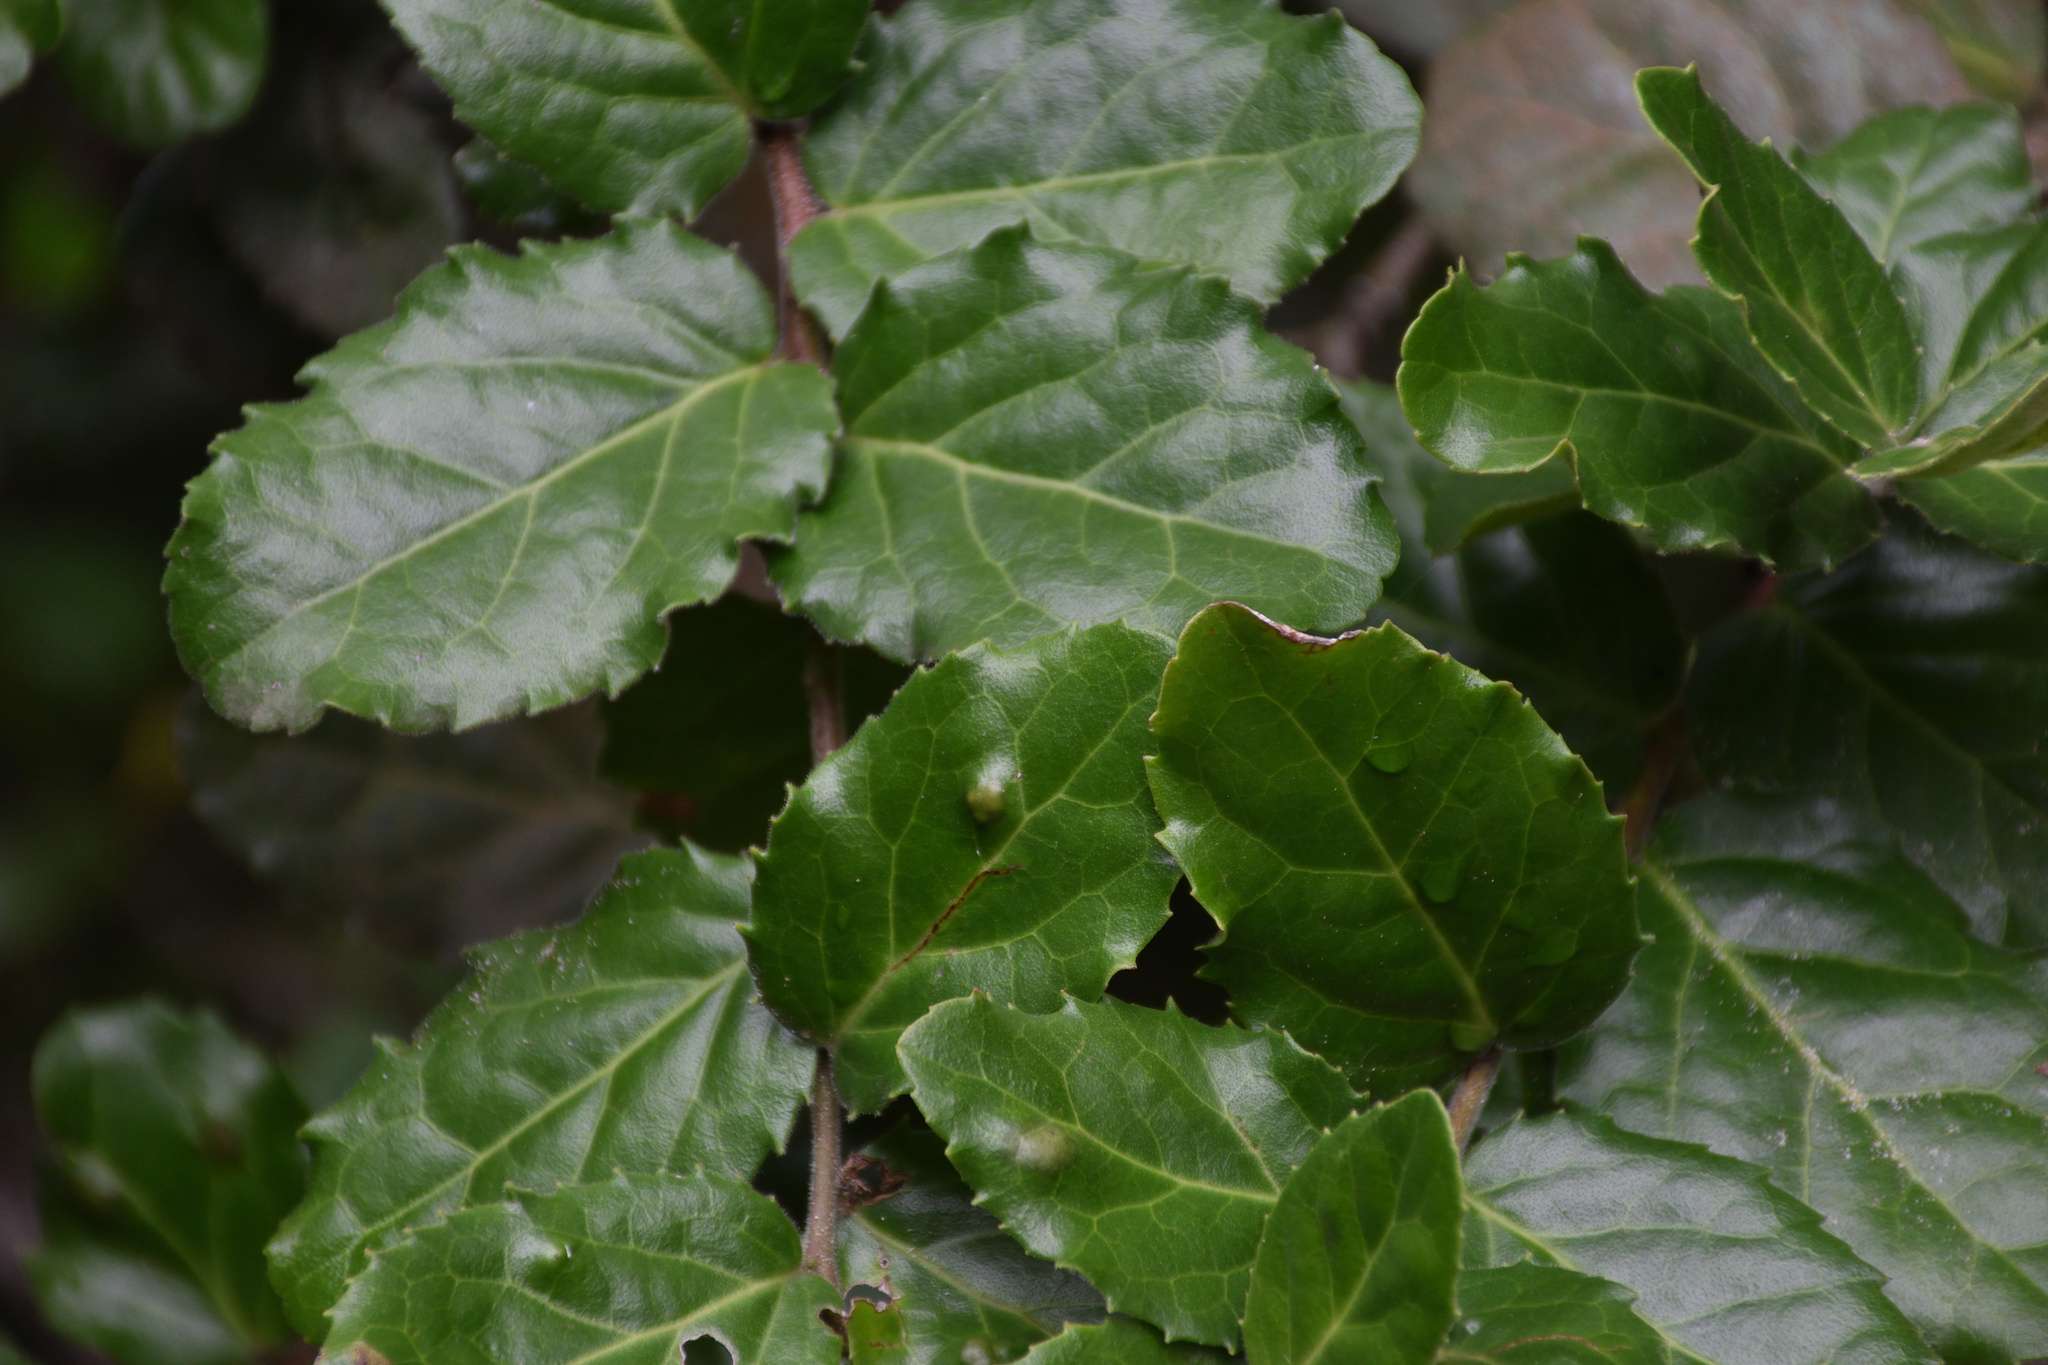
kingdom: Plantae
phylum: Tracheophyta
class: Magnoliopsida
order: Celastrales
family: Celastraceae
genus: Mystroxylon
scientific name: Mystroxylon aethiopicum
